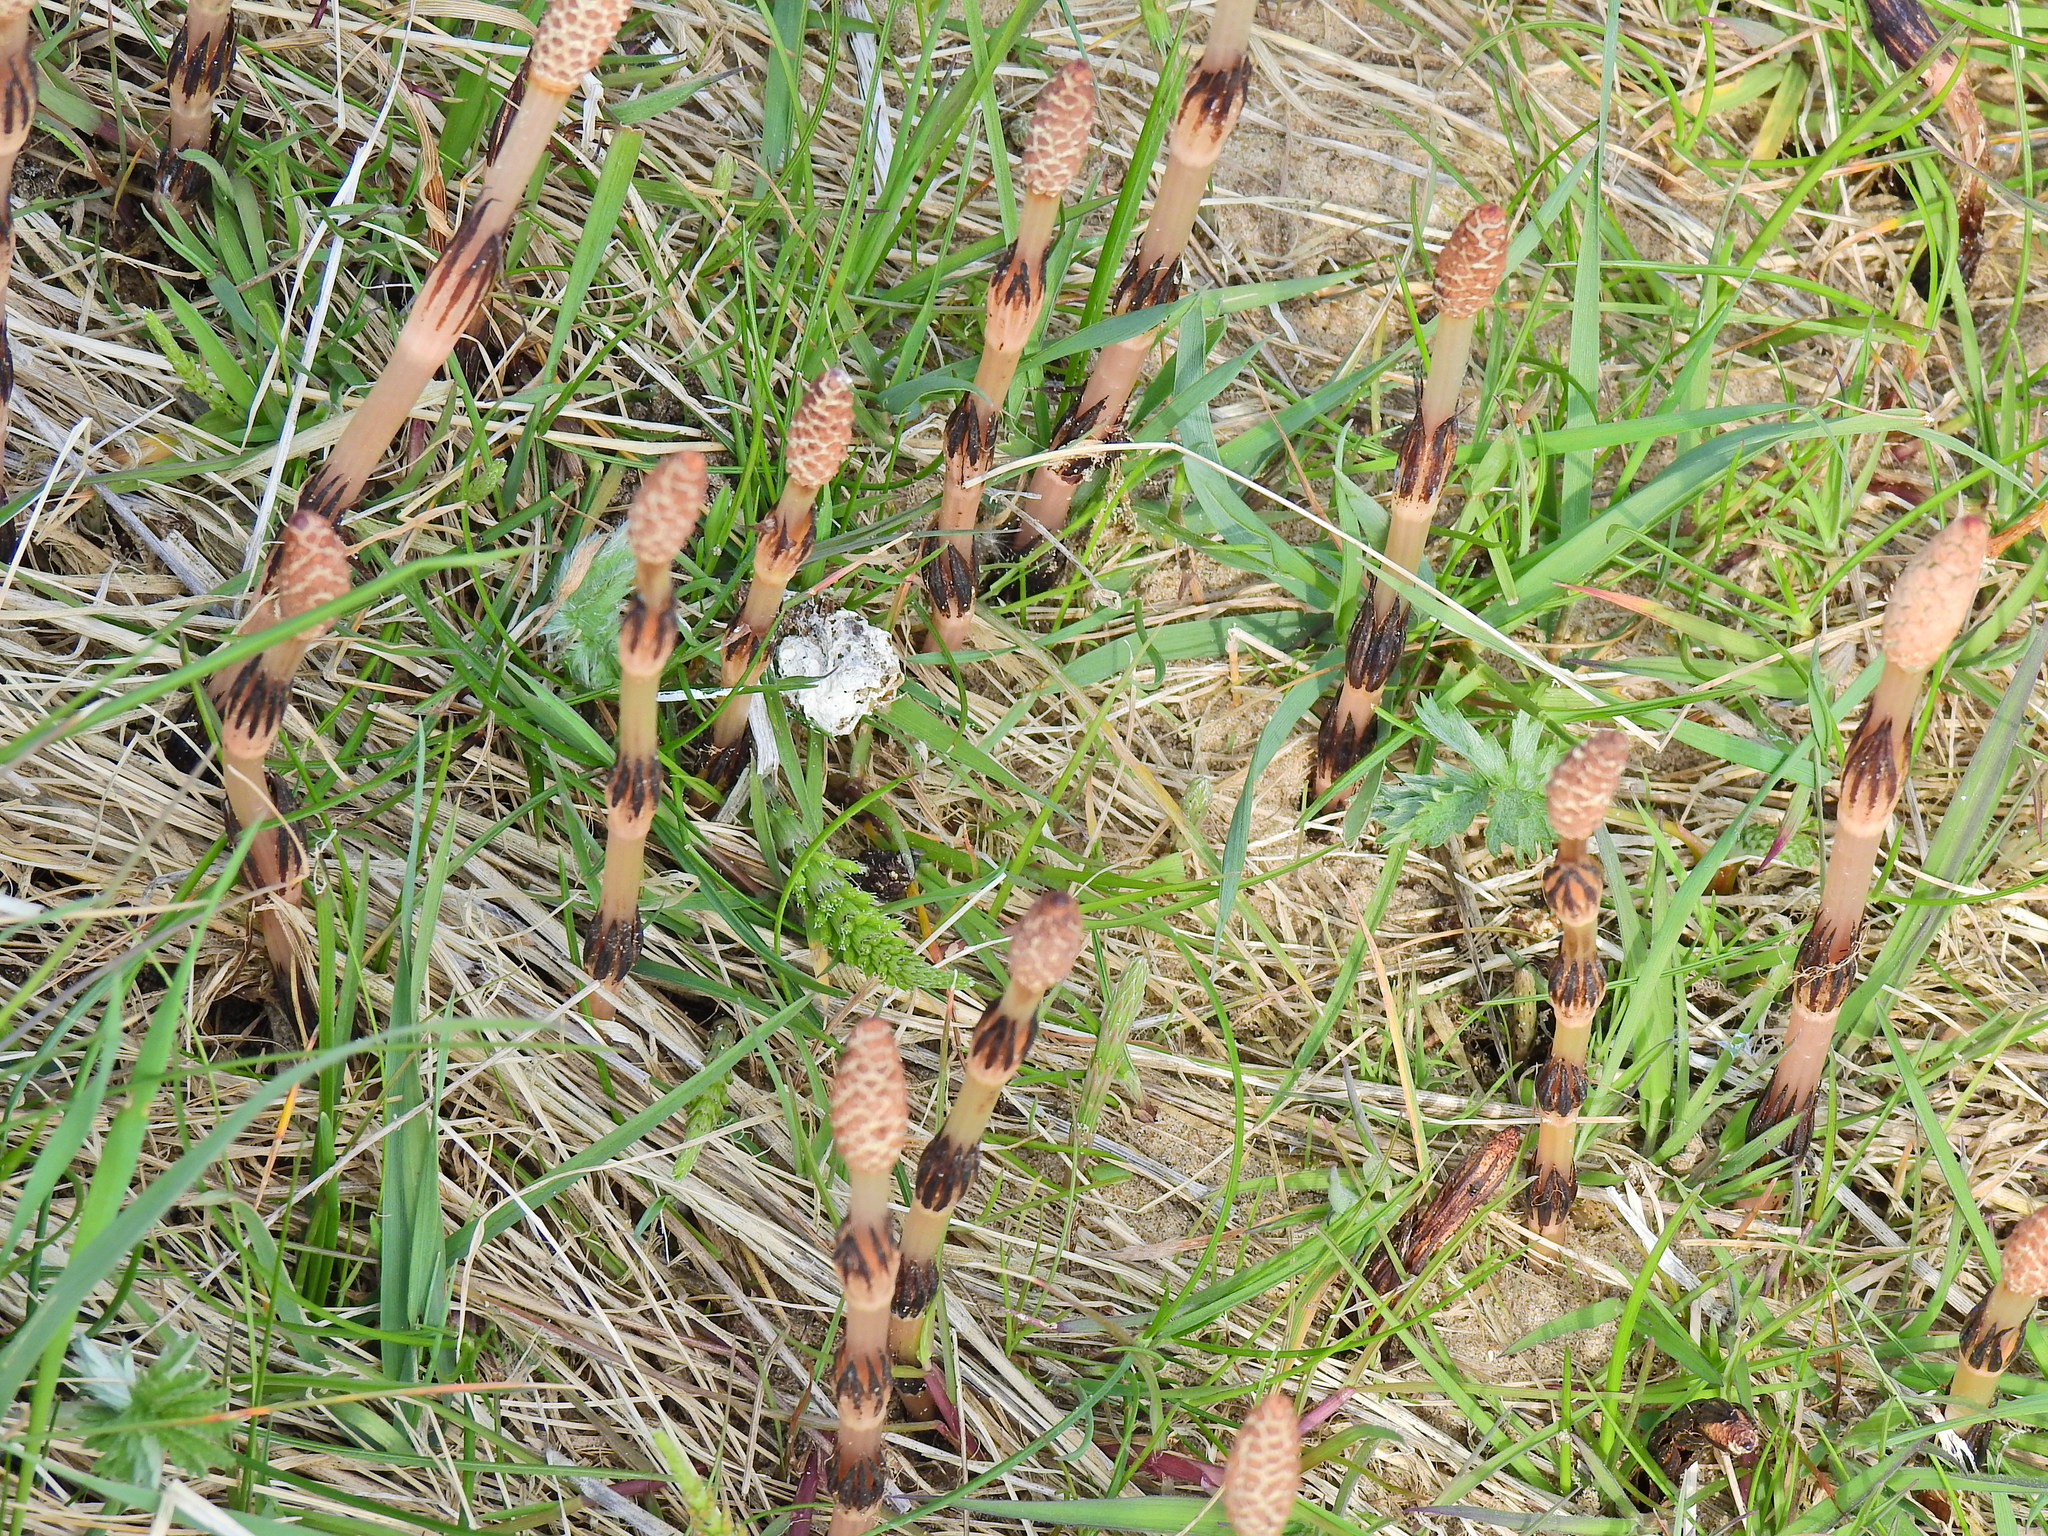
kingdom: Plantae
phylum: Tracheophyta
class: Polypodiopsida
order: Equisetales
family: Equisetaceae
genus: Equisetum
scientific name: Equisetum arvense
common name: Field horsetail
